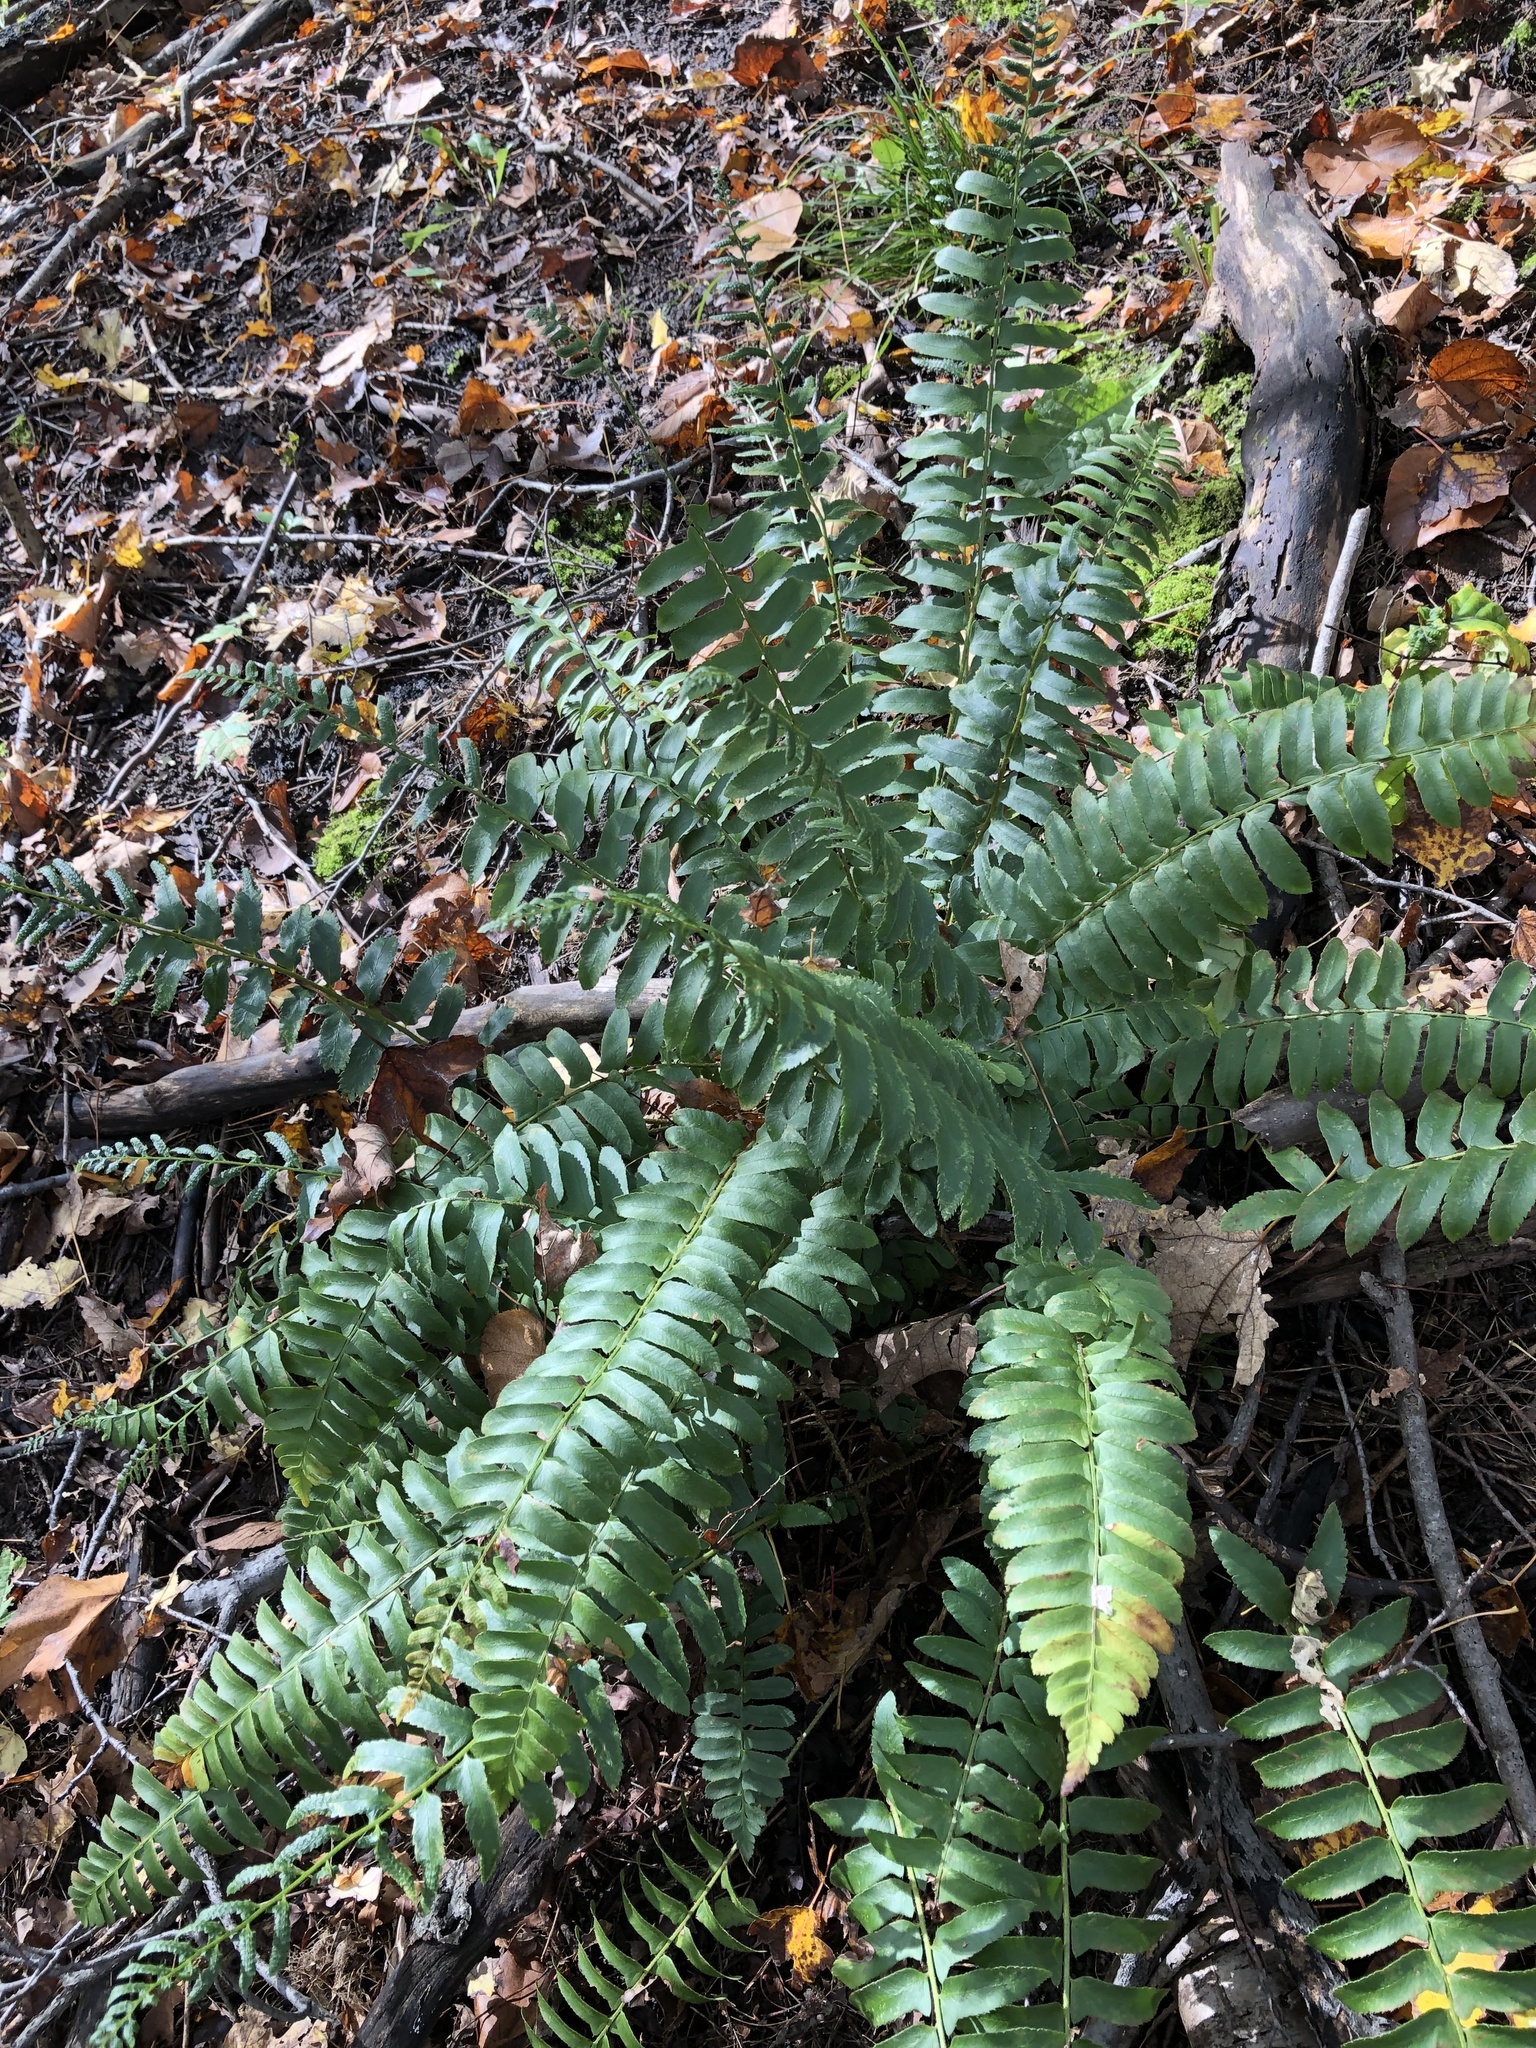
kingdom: Plantae
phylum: Tracheophyta
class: Polypodiopsida
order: Polypodiales
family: Dryopteridaceae
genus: Polystichum
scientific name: Polystichum acrostichoides
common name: Christmas fern
